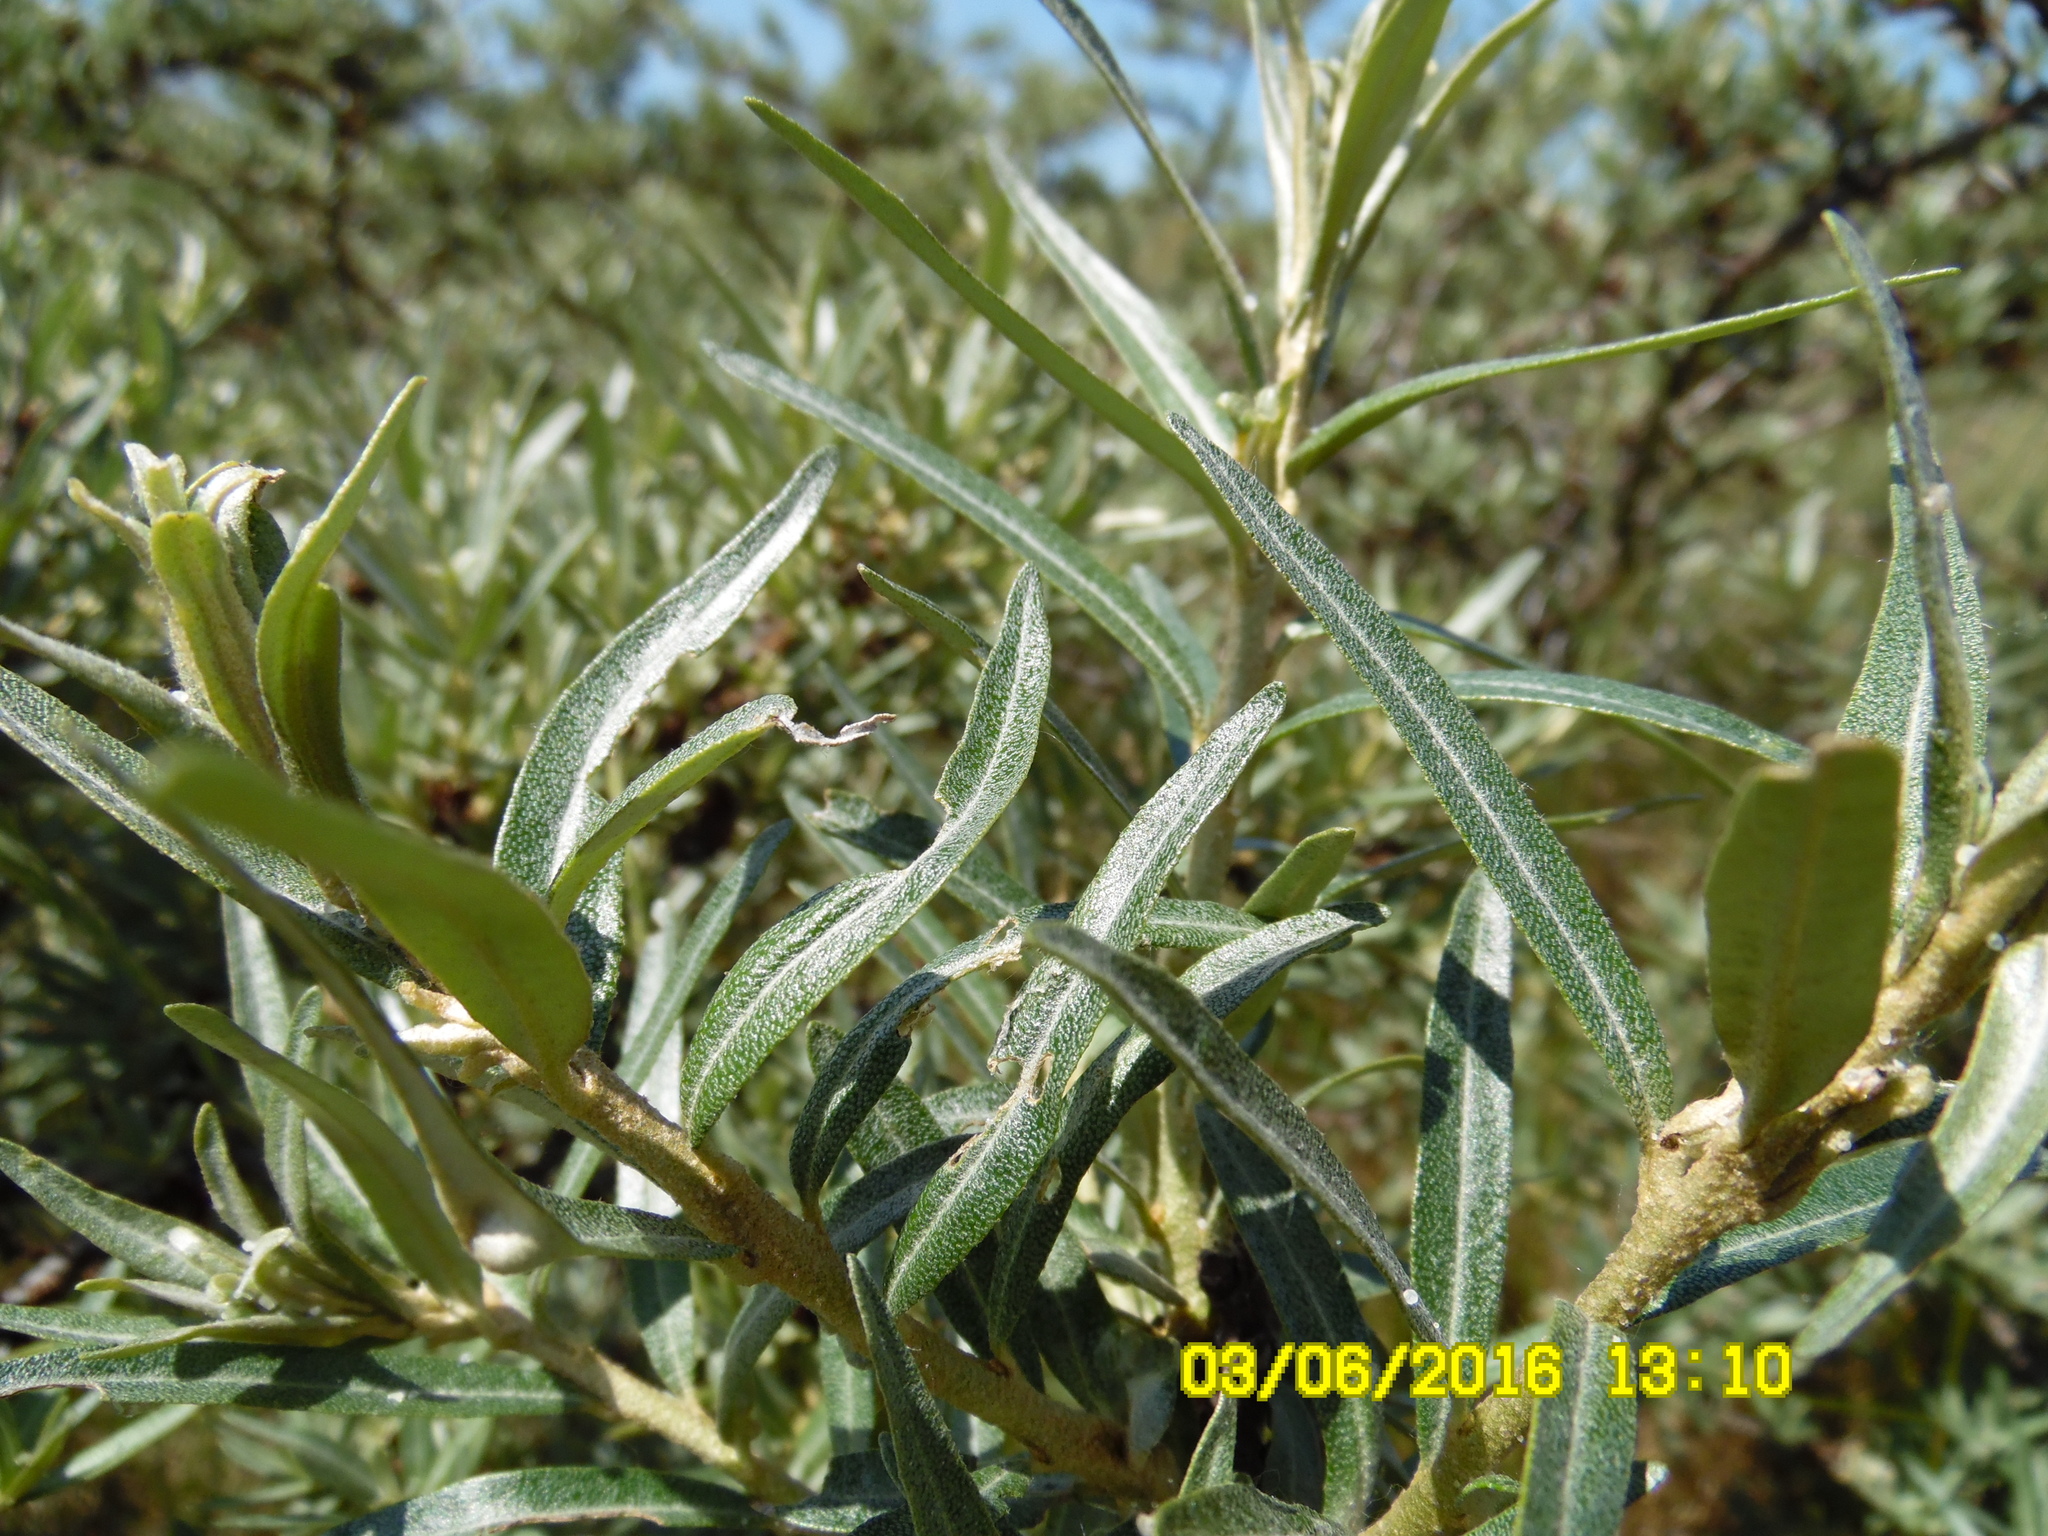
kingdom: Plantae
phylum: Tracheophyta
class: Magnoliopsida
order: Rosales
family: Elaeagnaceae
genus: Hippophae
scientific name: Hippophae rhamnoides
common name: Sea-buckthorn
